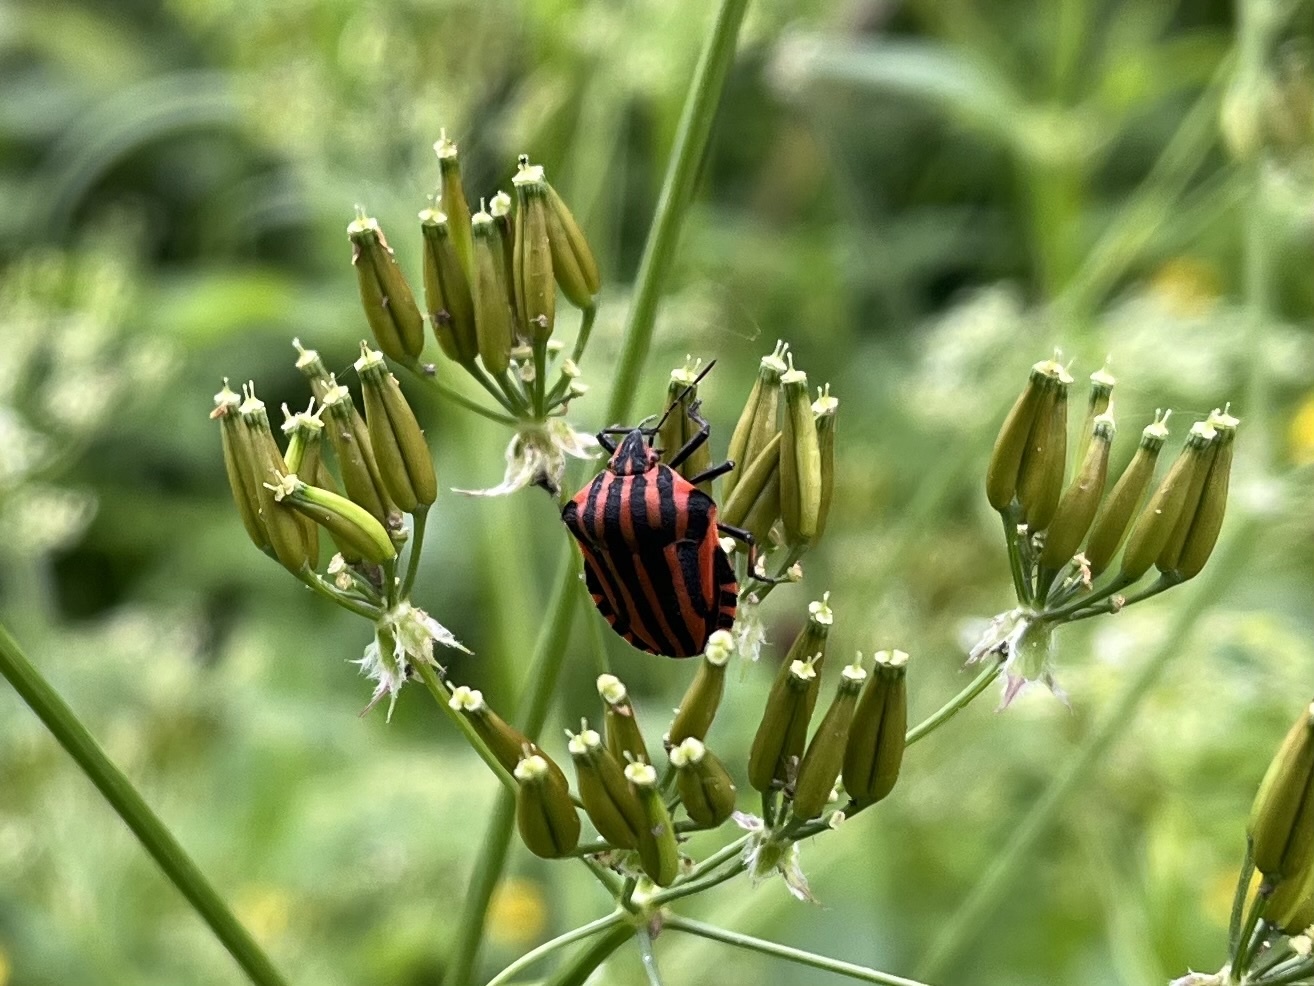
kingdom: Animalia
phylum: Arthropoda
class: Insecta
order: Hemiptera
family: Pentatomidae
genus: Graphosoma
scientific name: Graphosoma italicum
